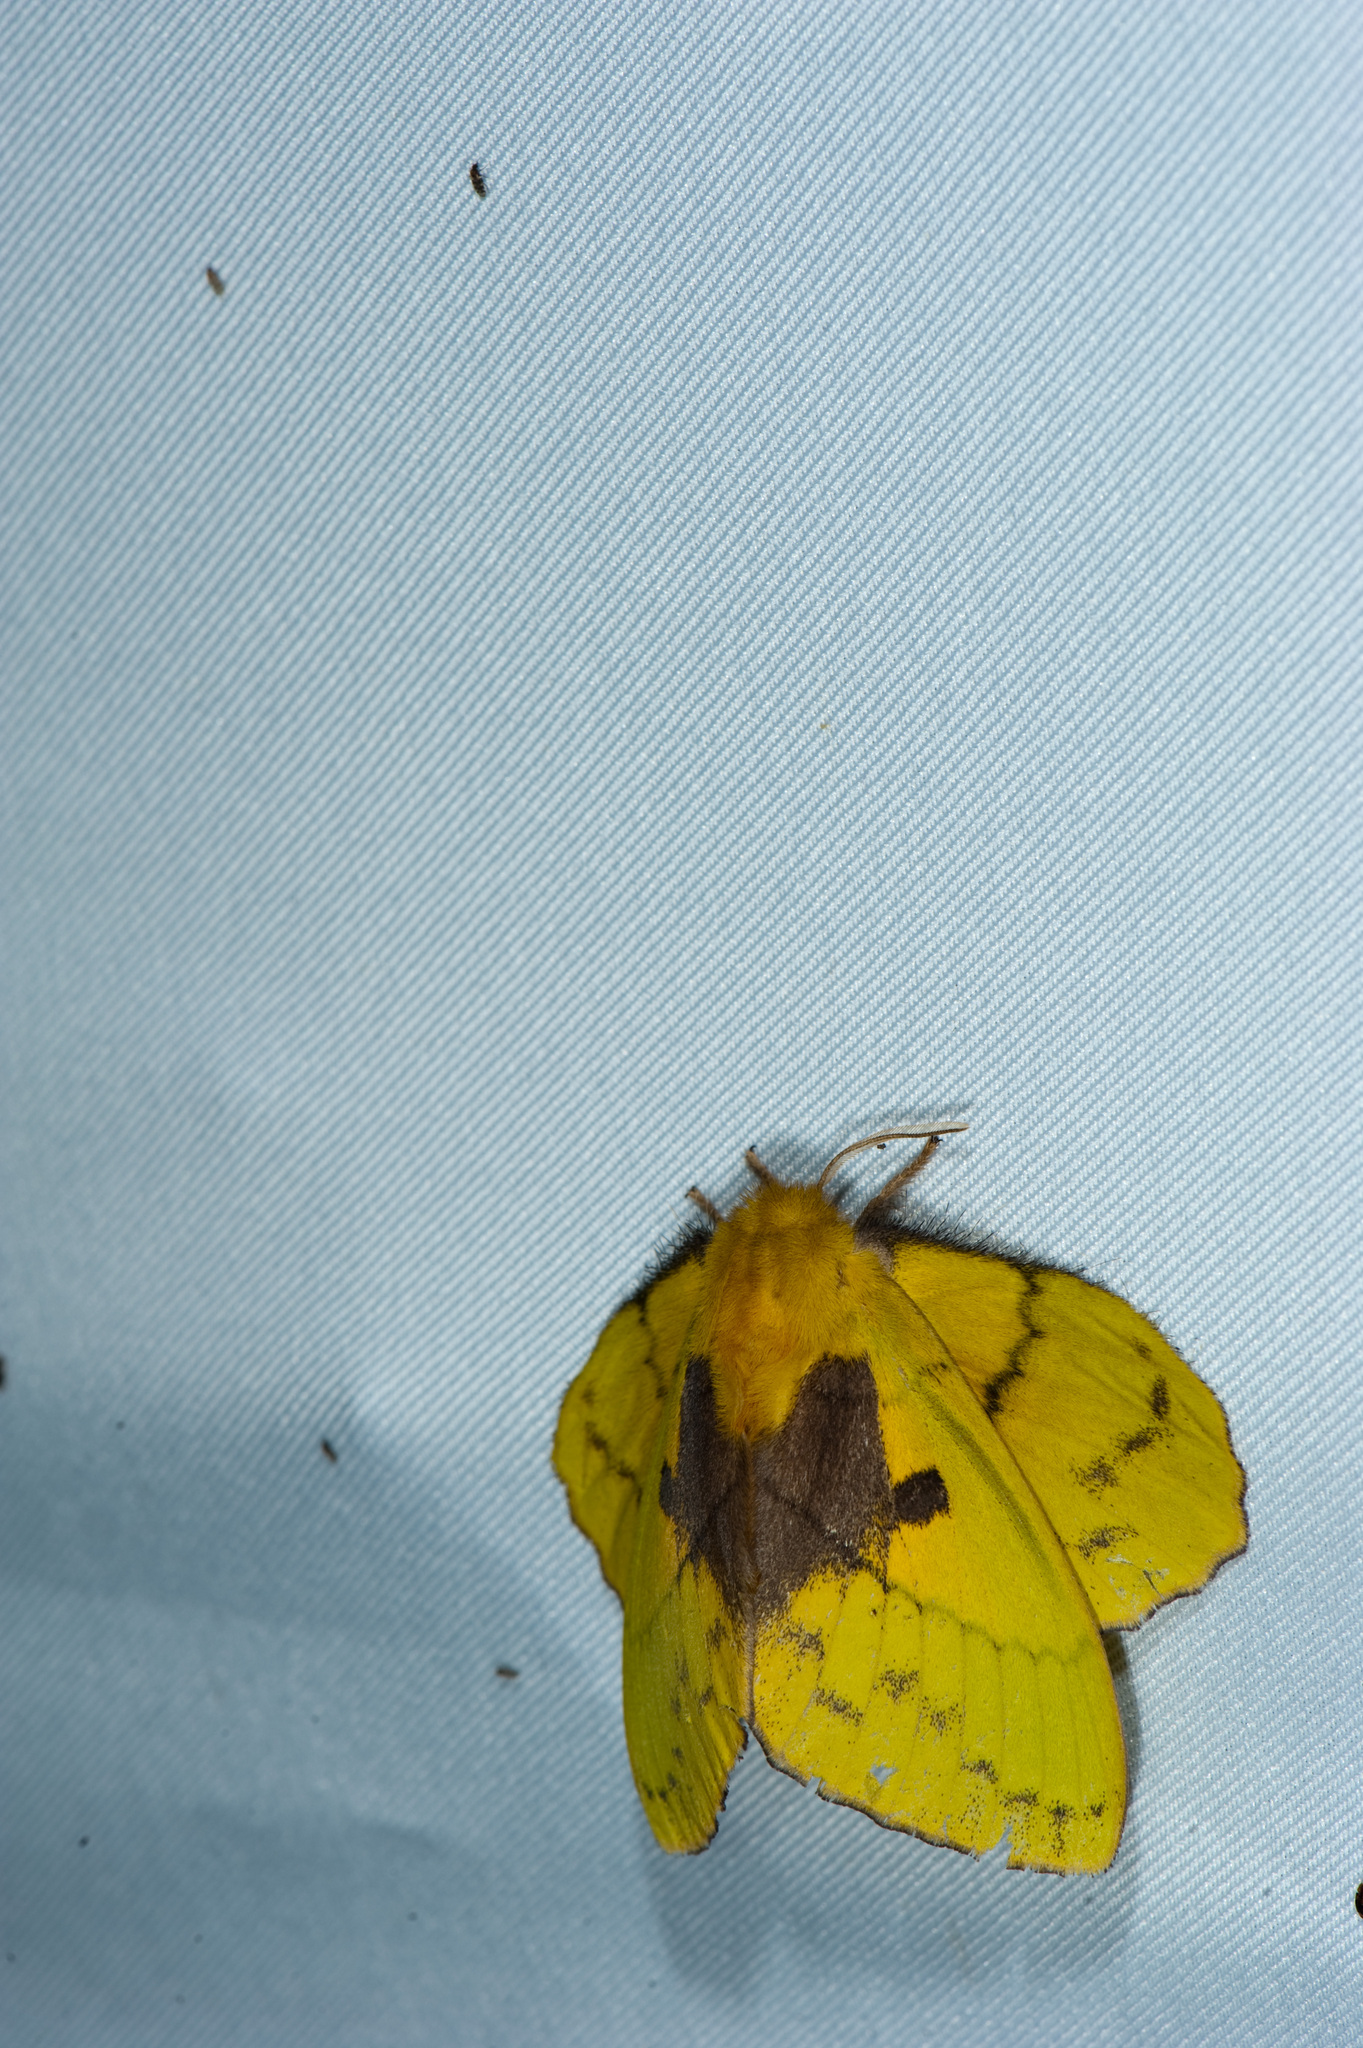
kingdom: Animalia
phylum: Arthropoda
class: Insecta
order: Lepidoptera
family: Lasiocampidae
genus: Trabala
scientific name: Trabala vishnou
